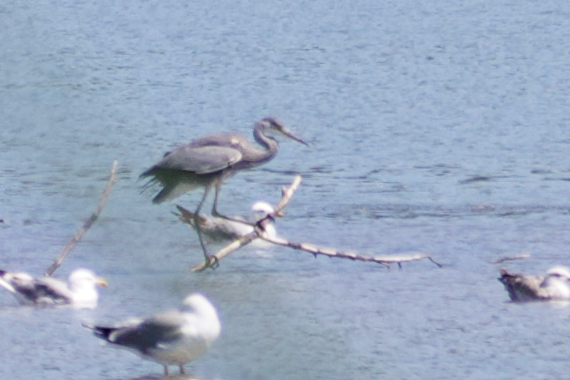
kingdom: Animalia
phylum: Chordata
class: Aves
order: Pelecaniformes
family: Ardeidae
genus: Ardea
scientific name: Ardea cinerea
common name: Grey heron
